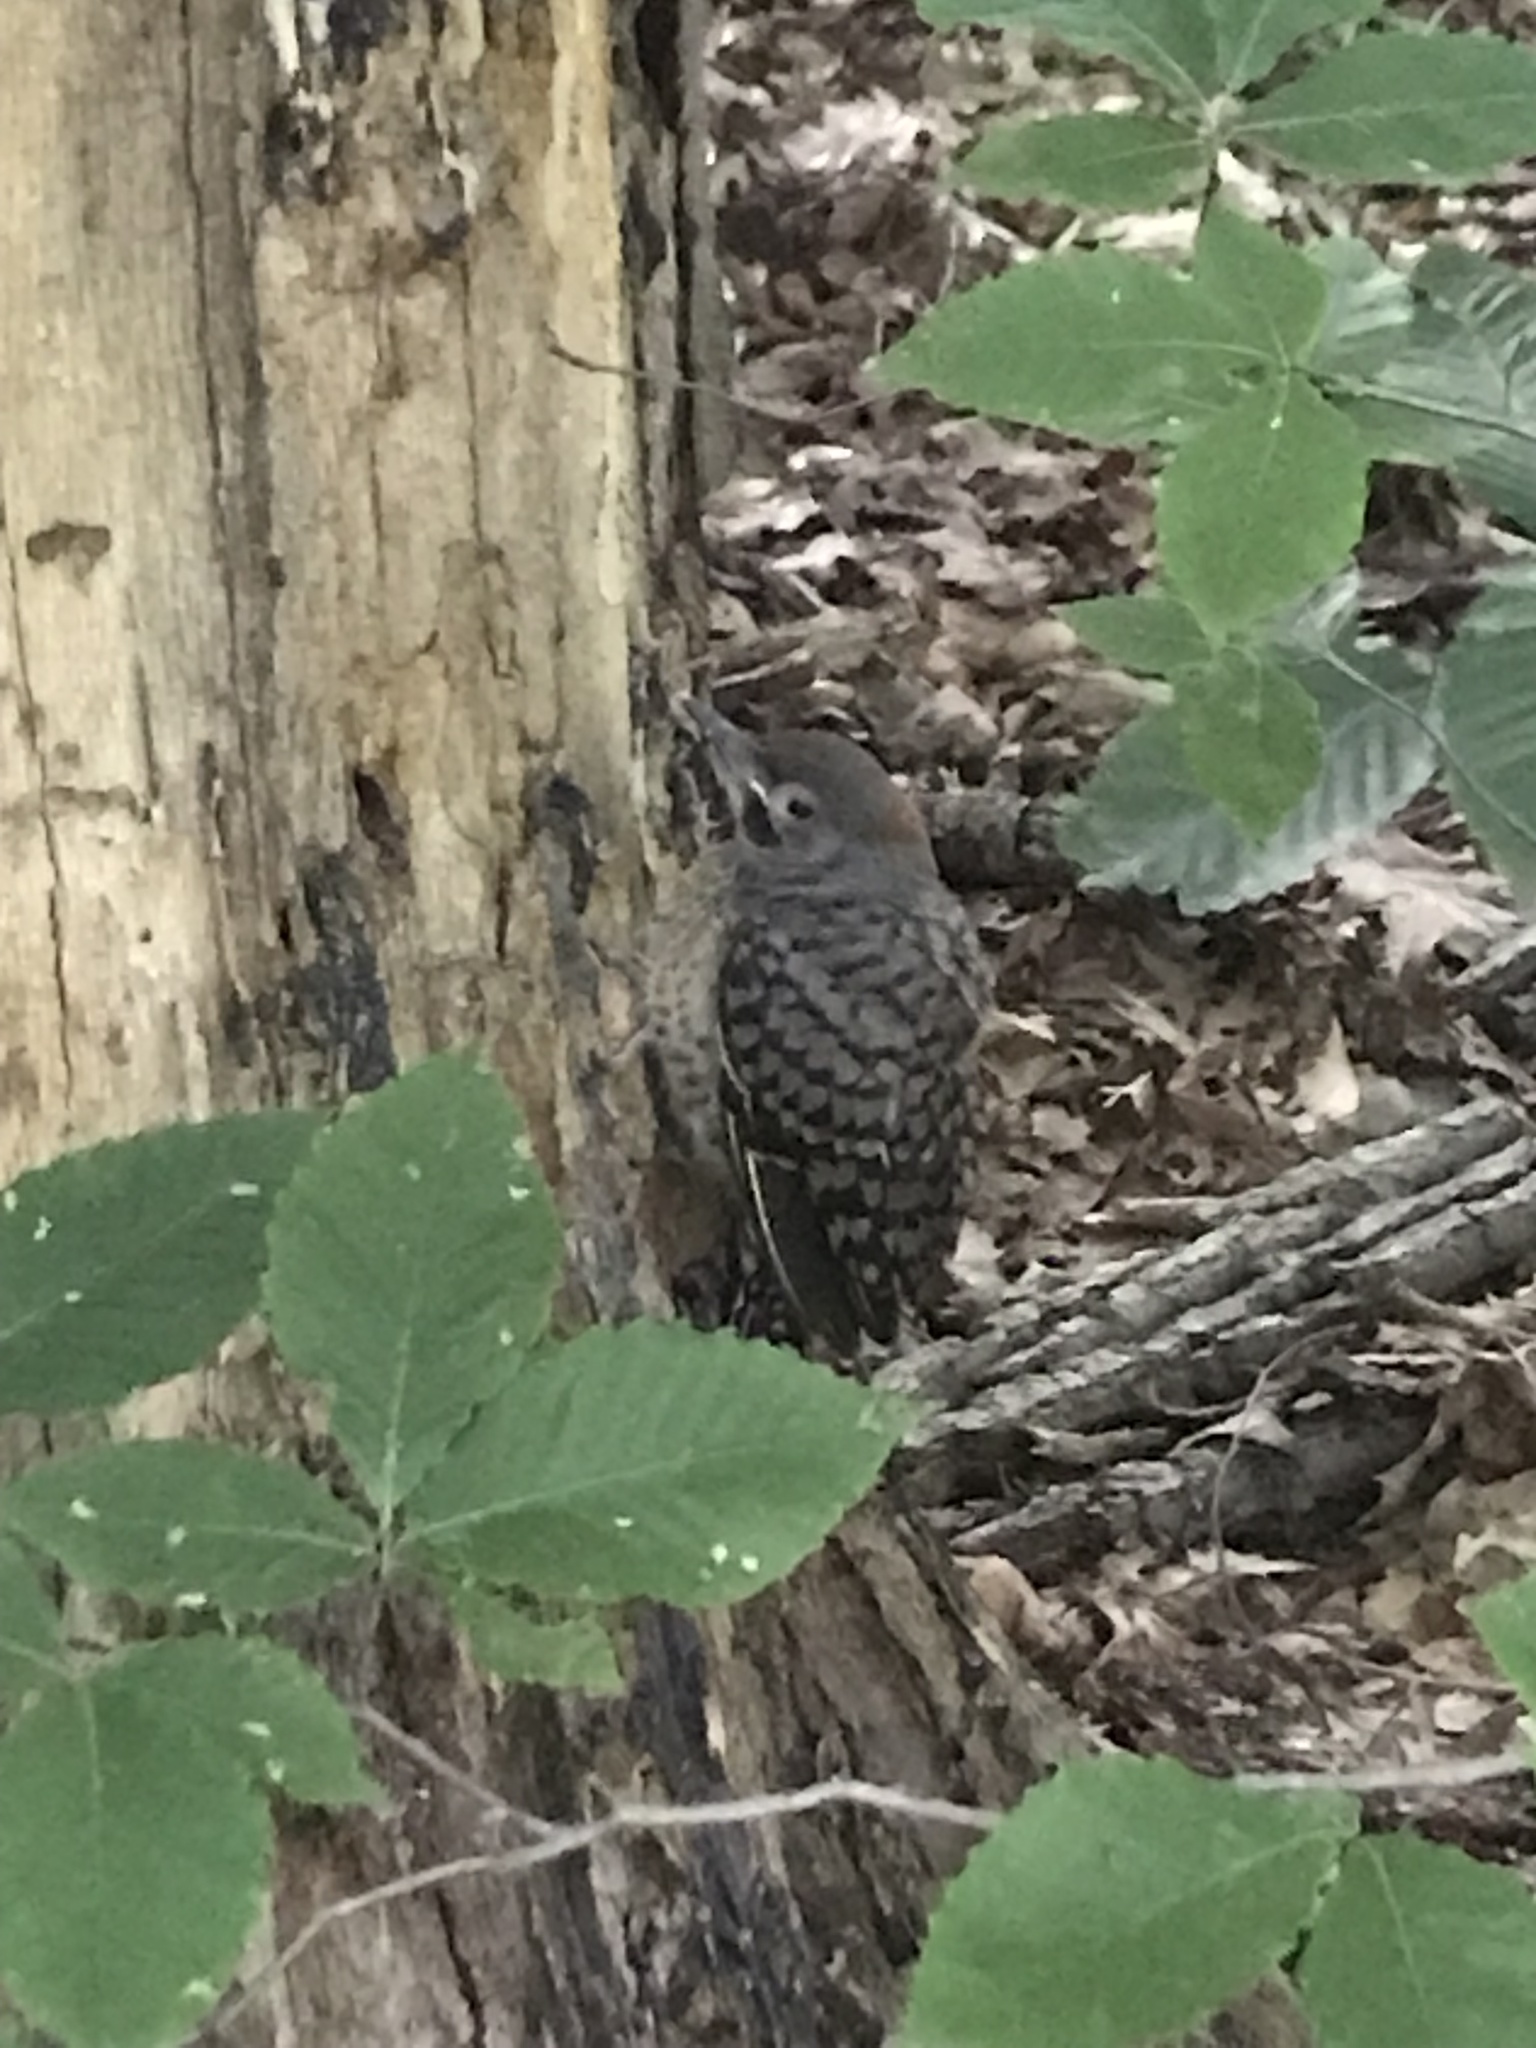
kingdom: Animalia
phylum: Chordata
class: Aves
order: Piciformes
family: Picidae
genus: Colaptes
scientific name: Colaptes auratus
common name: Northern flicker
